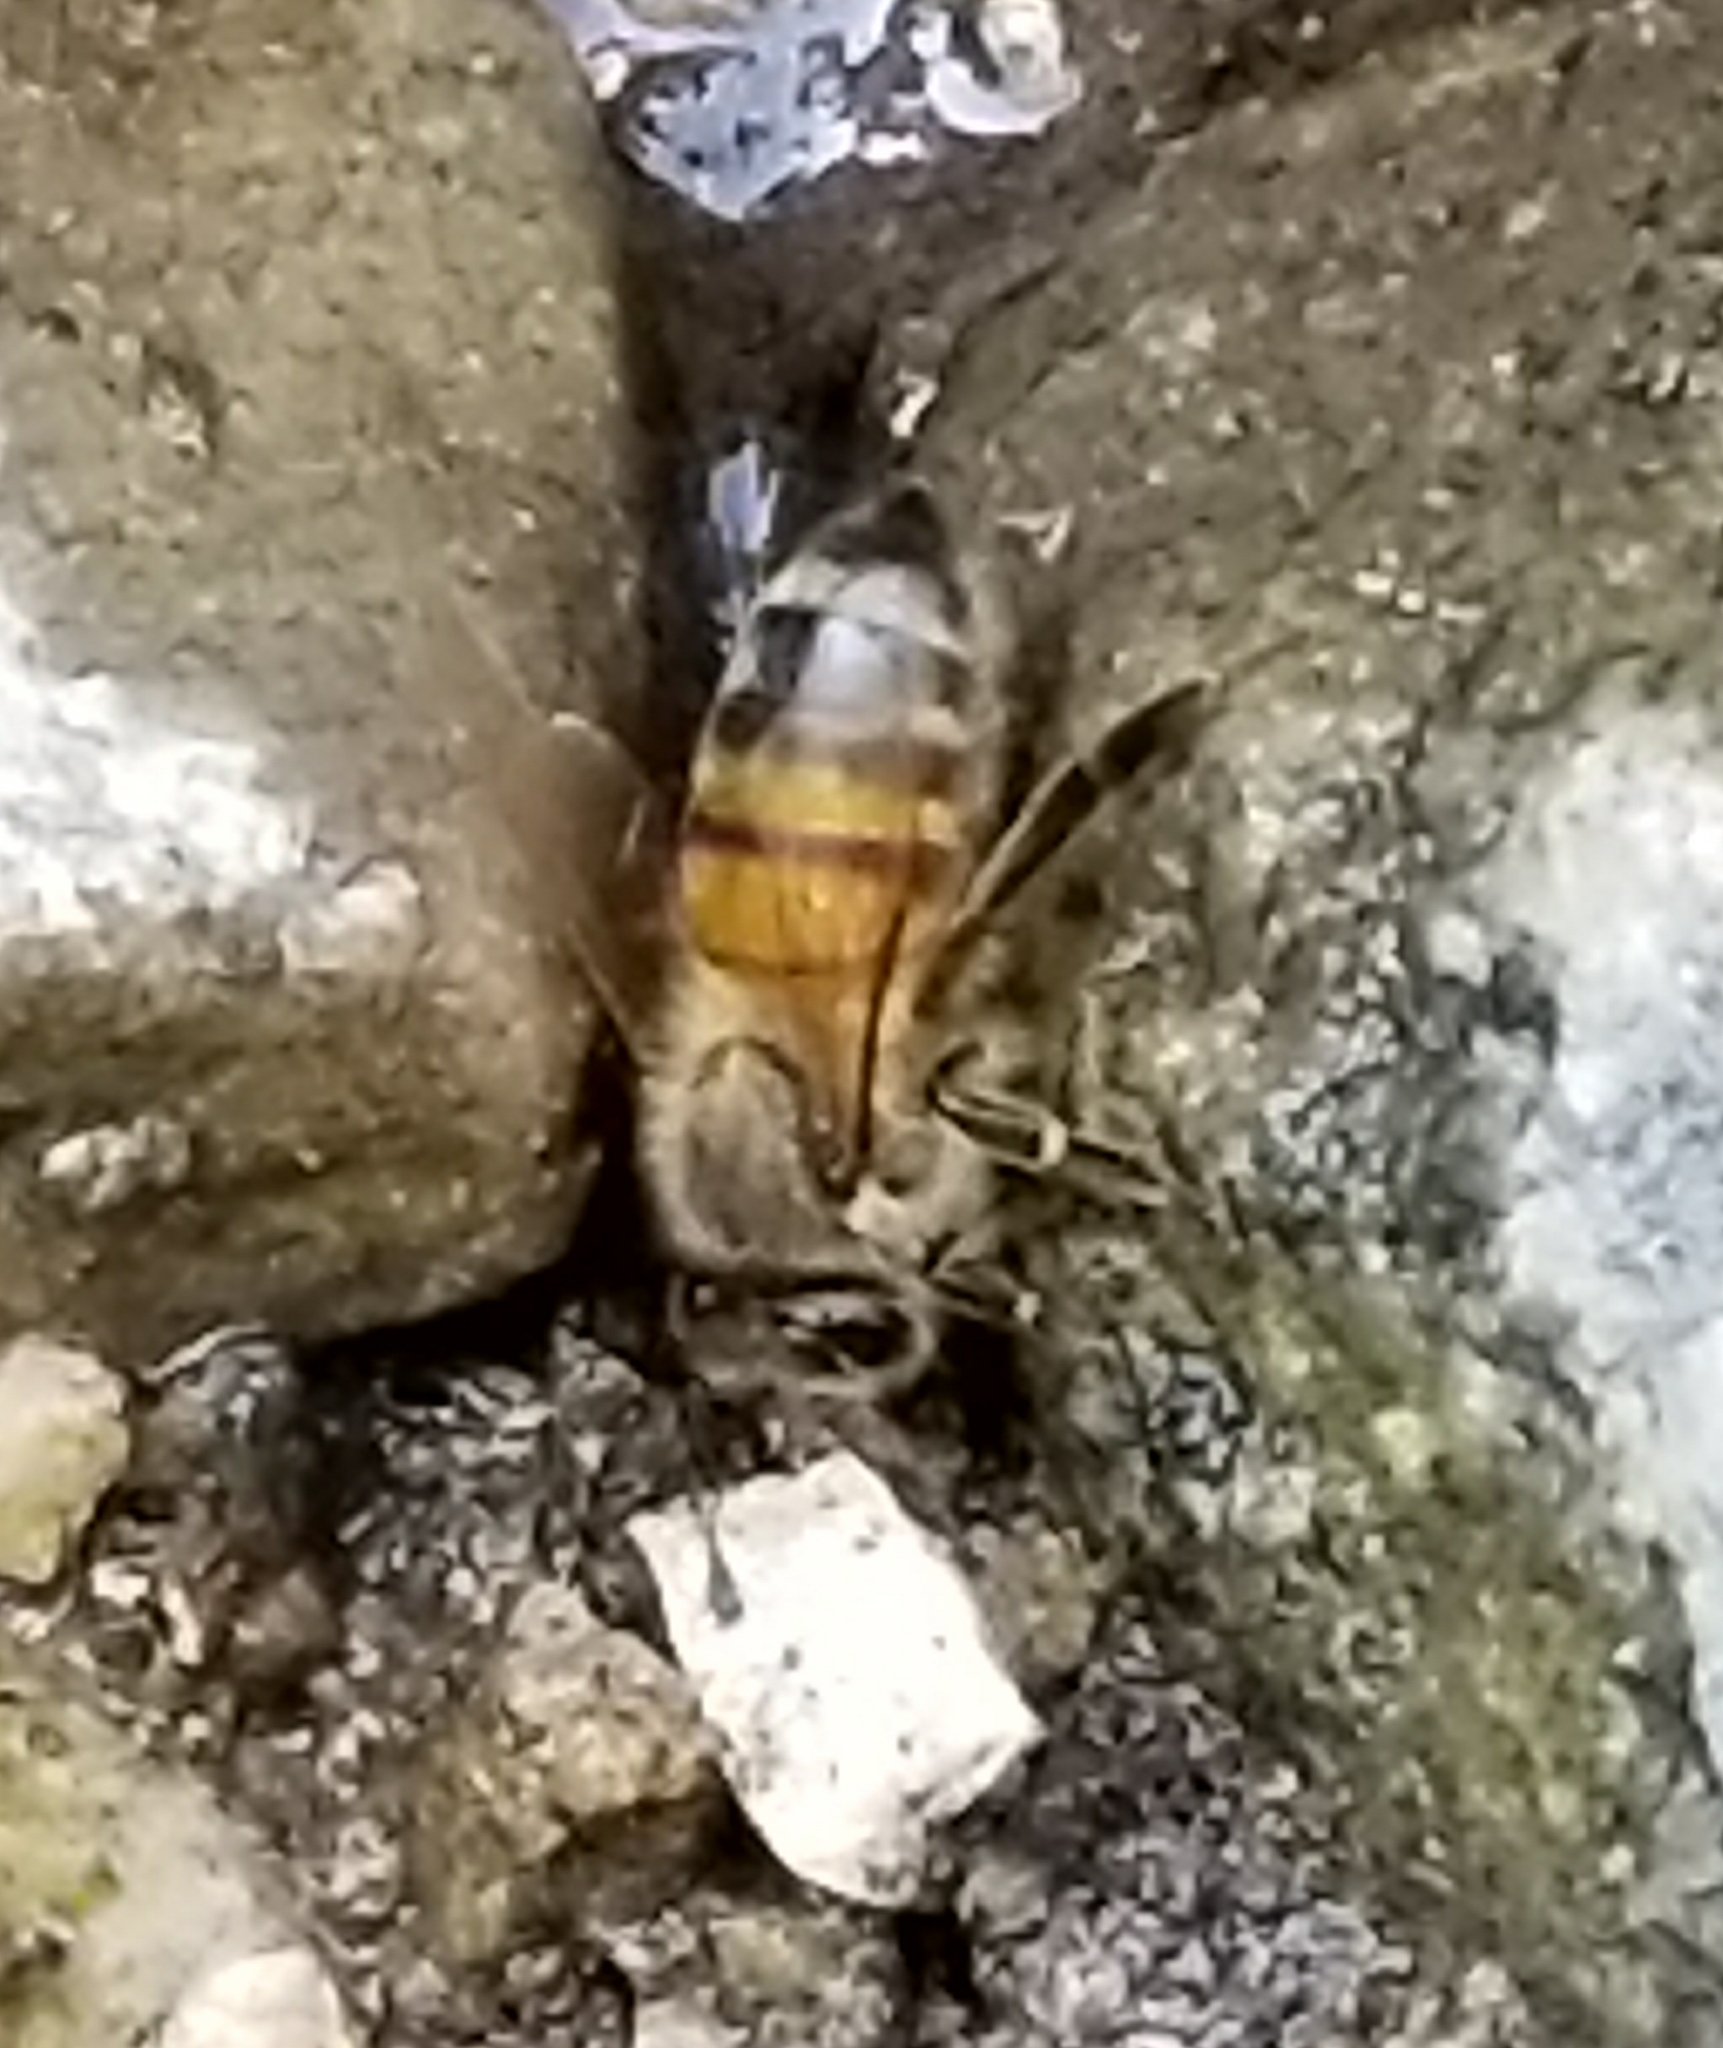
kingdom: Animalia
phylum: Arthropoda
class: Insecta
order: Hymenoptera
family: Apidae
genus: Apis
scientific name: Apis mellifera
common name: Honey bee
